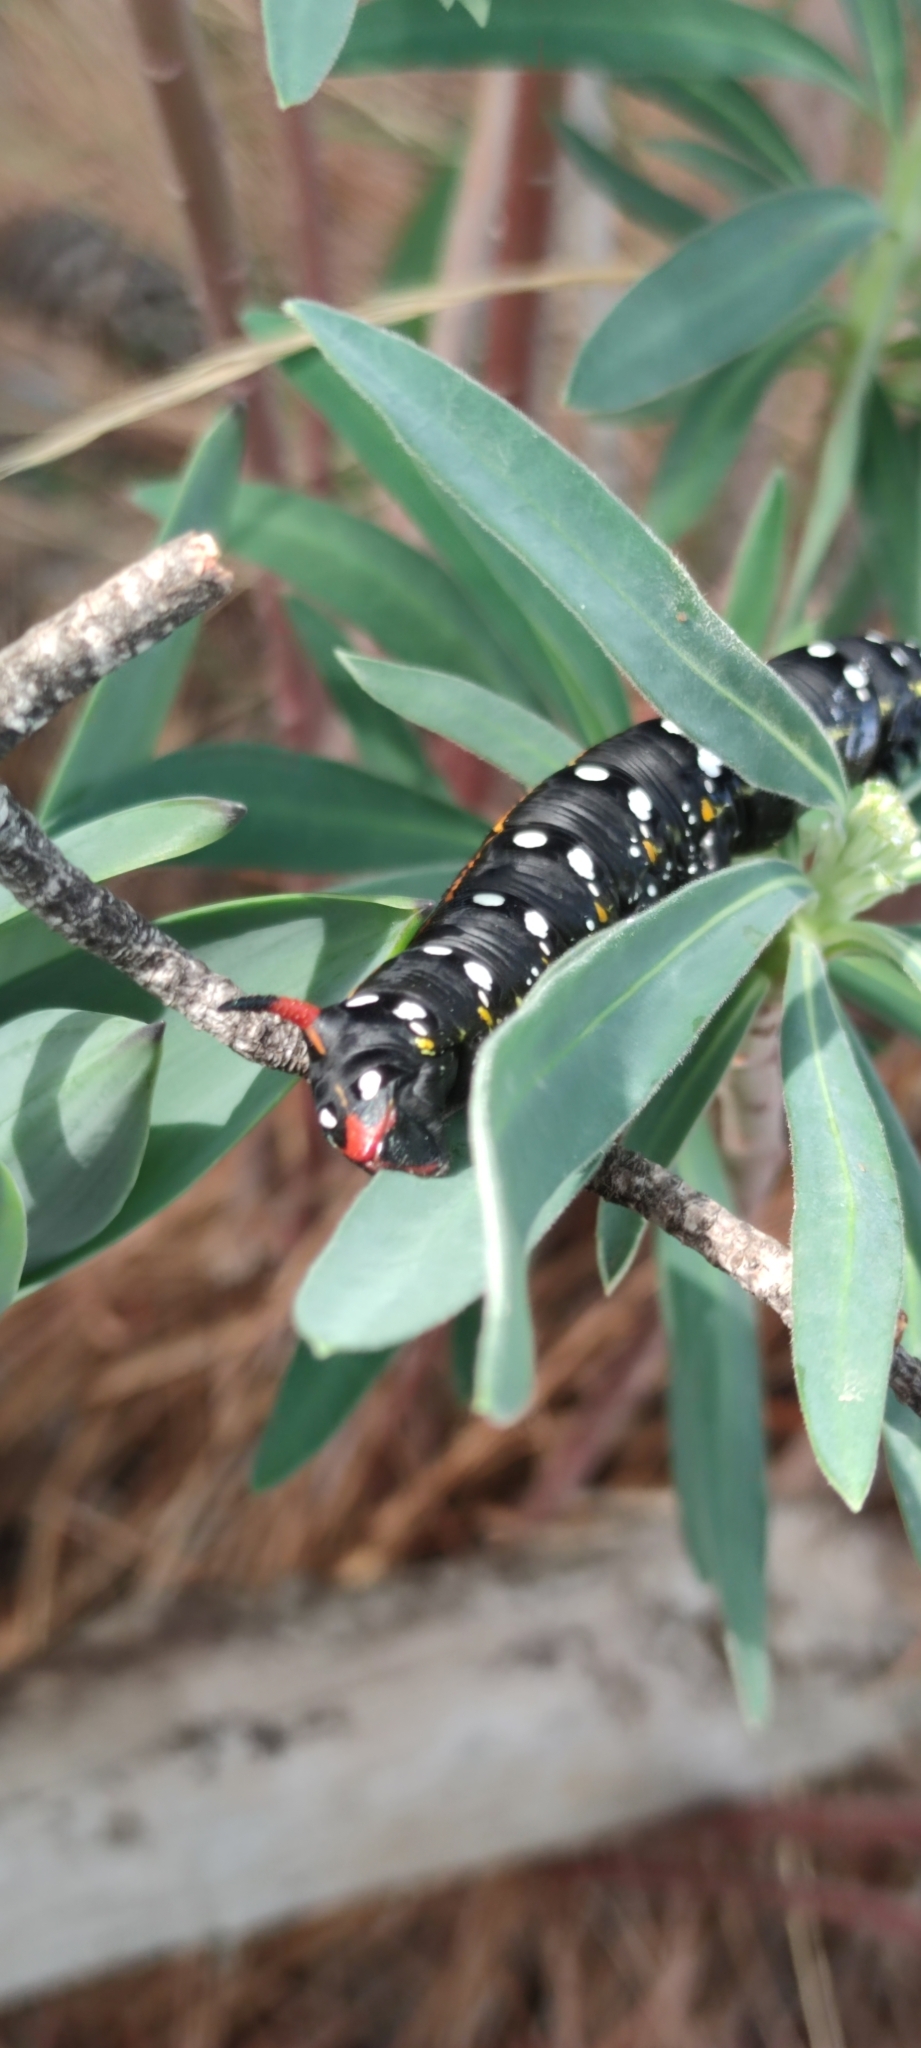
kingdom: Animalia
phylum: Arthropoda
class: Insecta
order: Lepidoptera
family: Sphingidae
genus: Hyles
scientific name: Hyles euphorbiae
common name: Spurge hawk-moth
